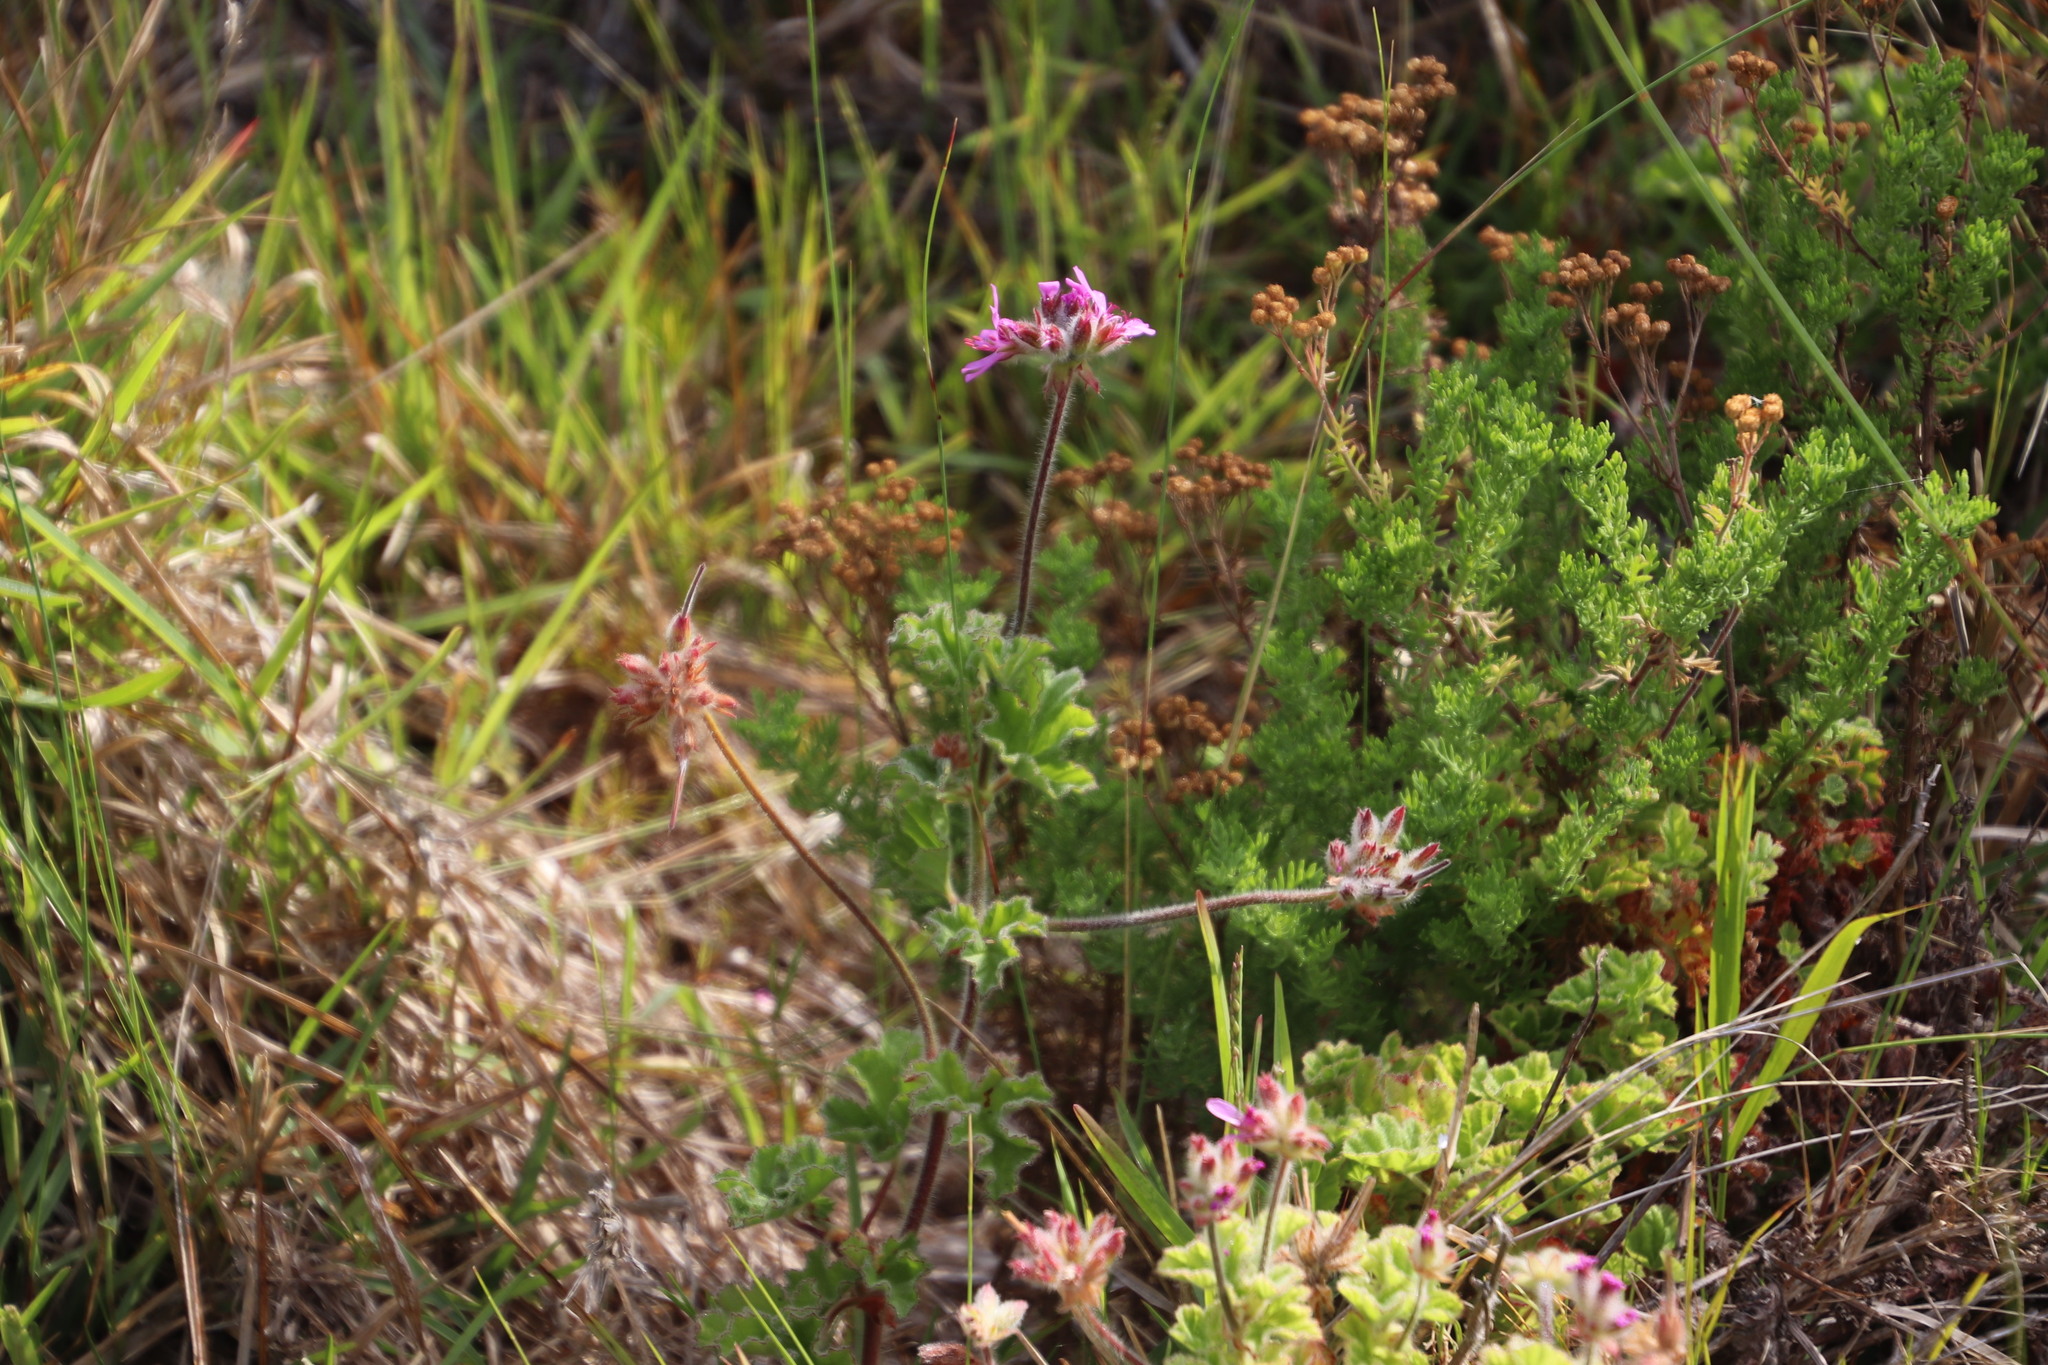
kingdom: Plantae
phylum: Tracheophyta
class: Magnoliopsida
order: Geraniales
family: Geraniaceae
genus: Pelargonium
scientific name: Pelargonium capitatum
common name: Rose scented geranium
